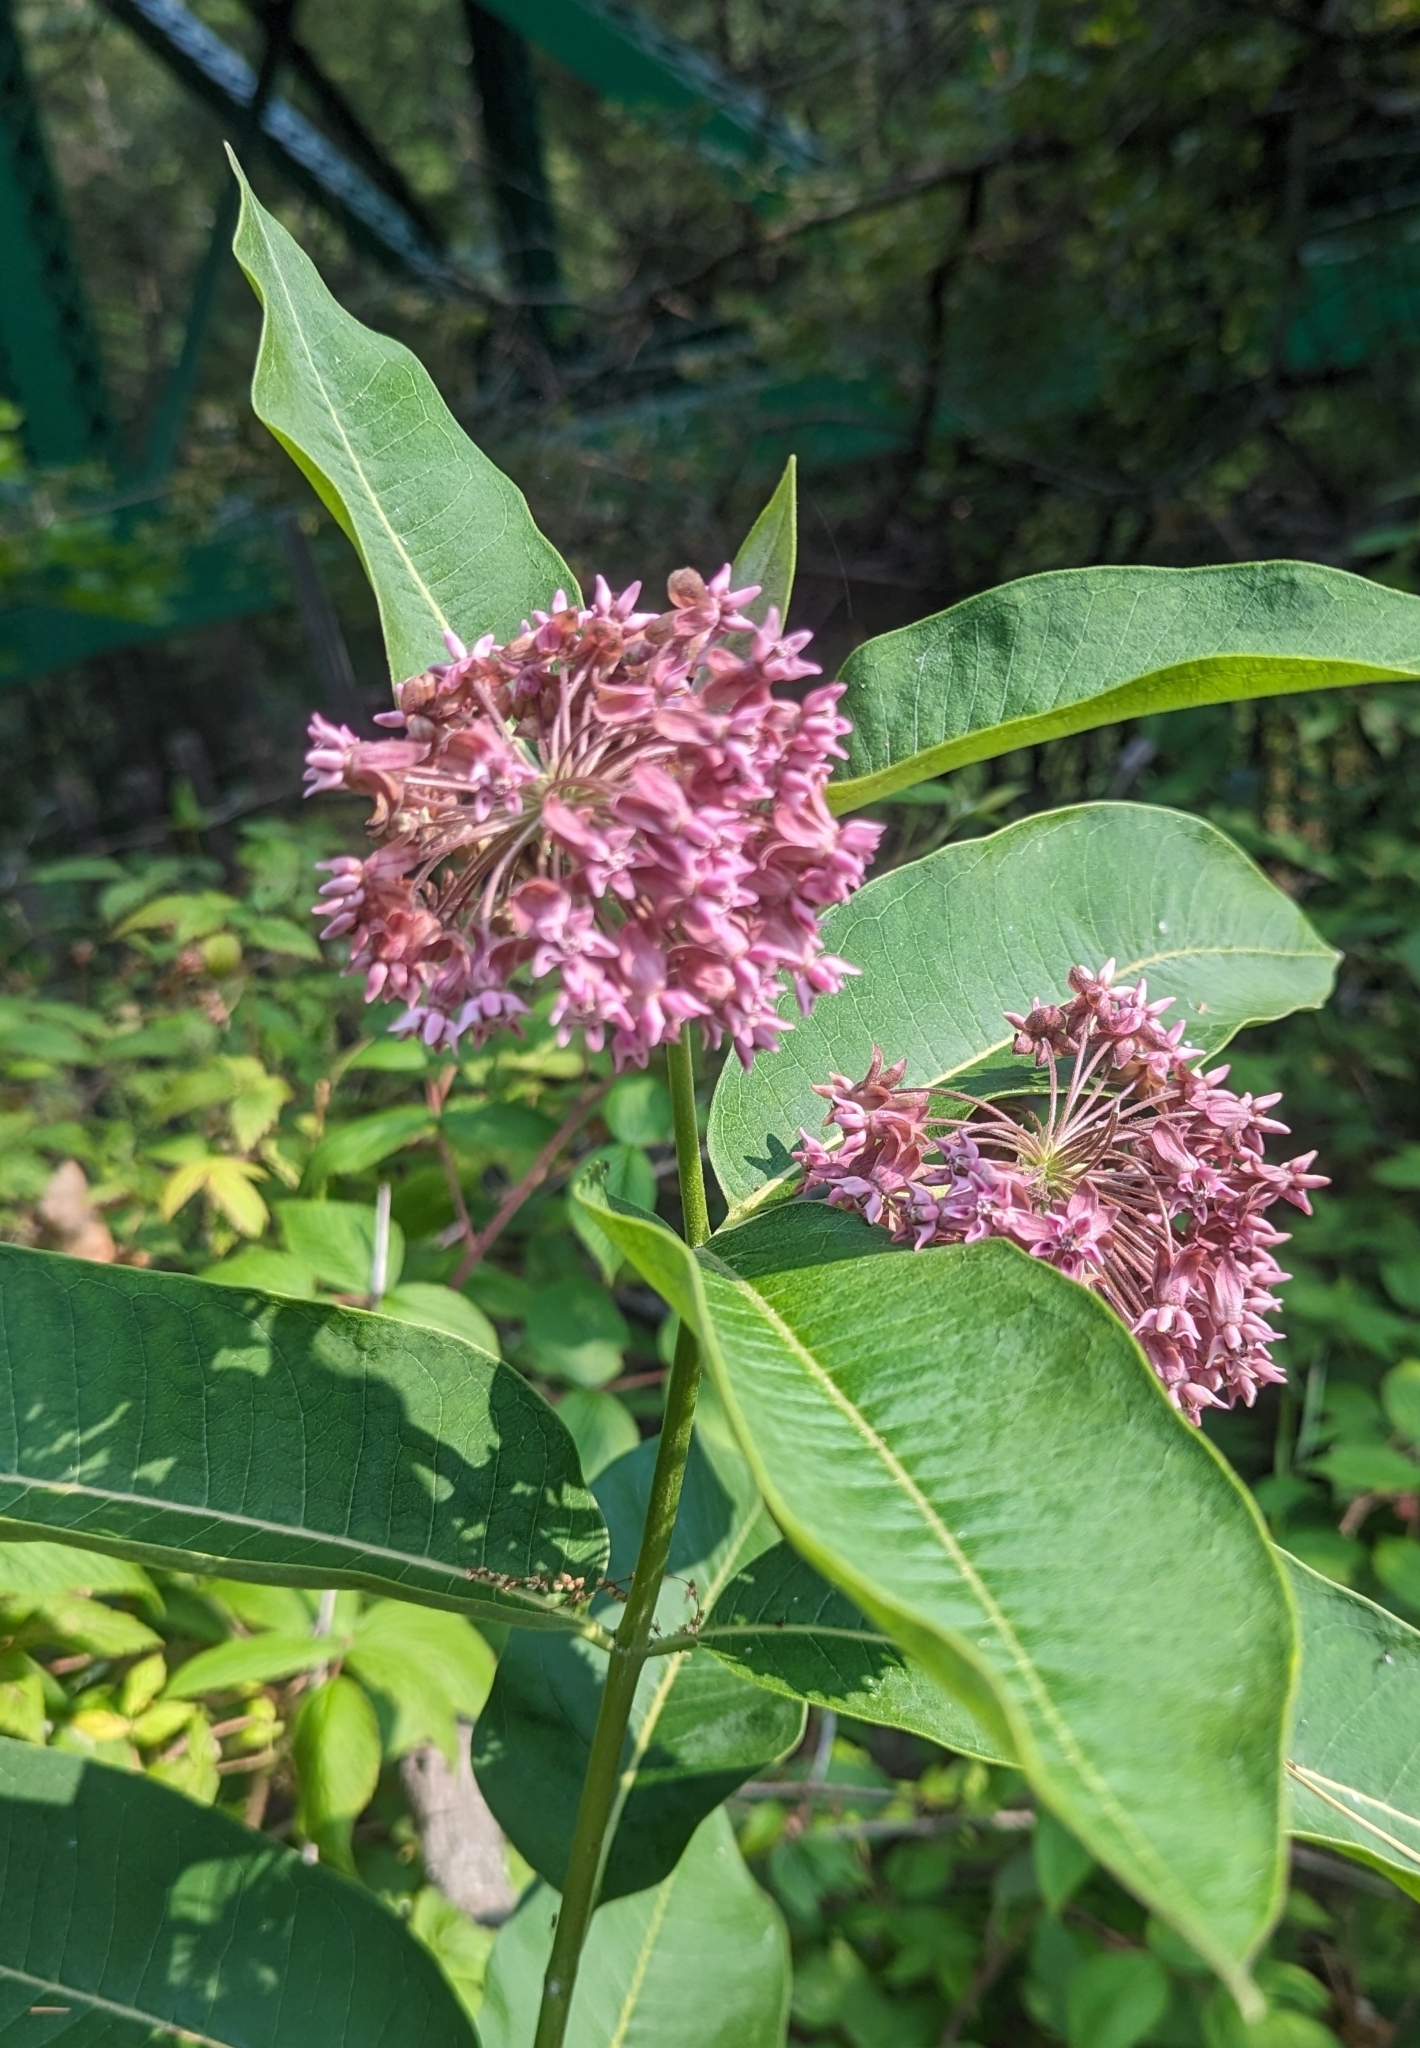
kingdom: Plantae
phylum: Tracheophyta
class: Magnoliopsida
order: Gentianales
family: Apocynaceae
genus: Asclepias
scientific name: Asclepias syriaca
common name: Common milkweed
